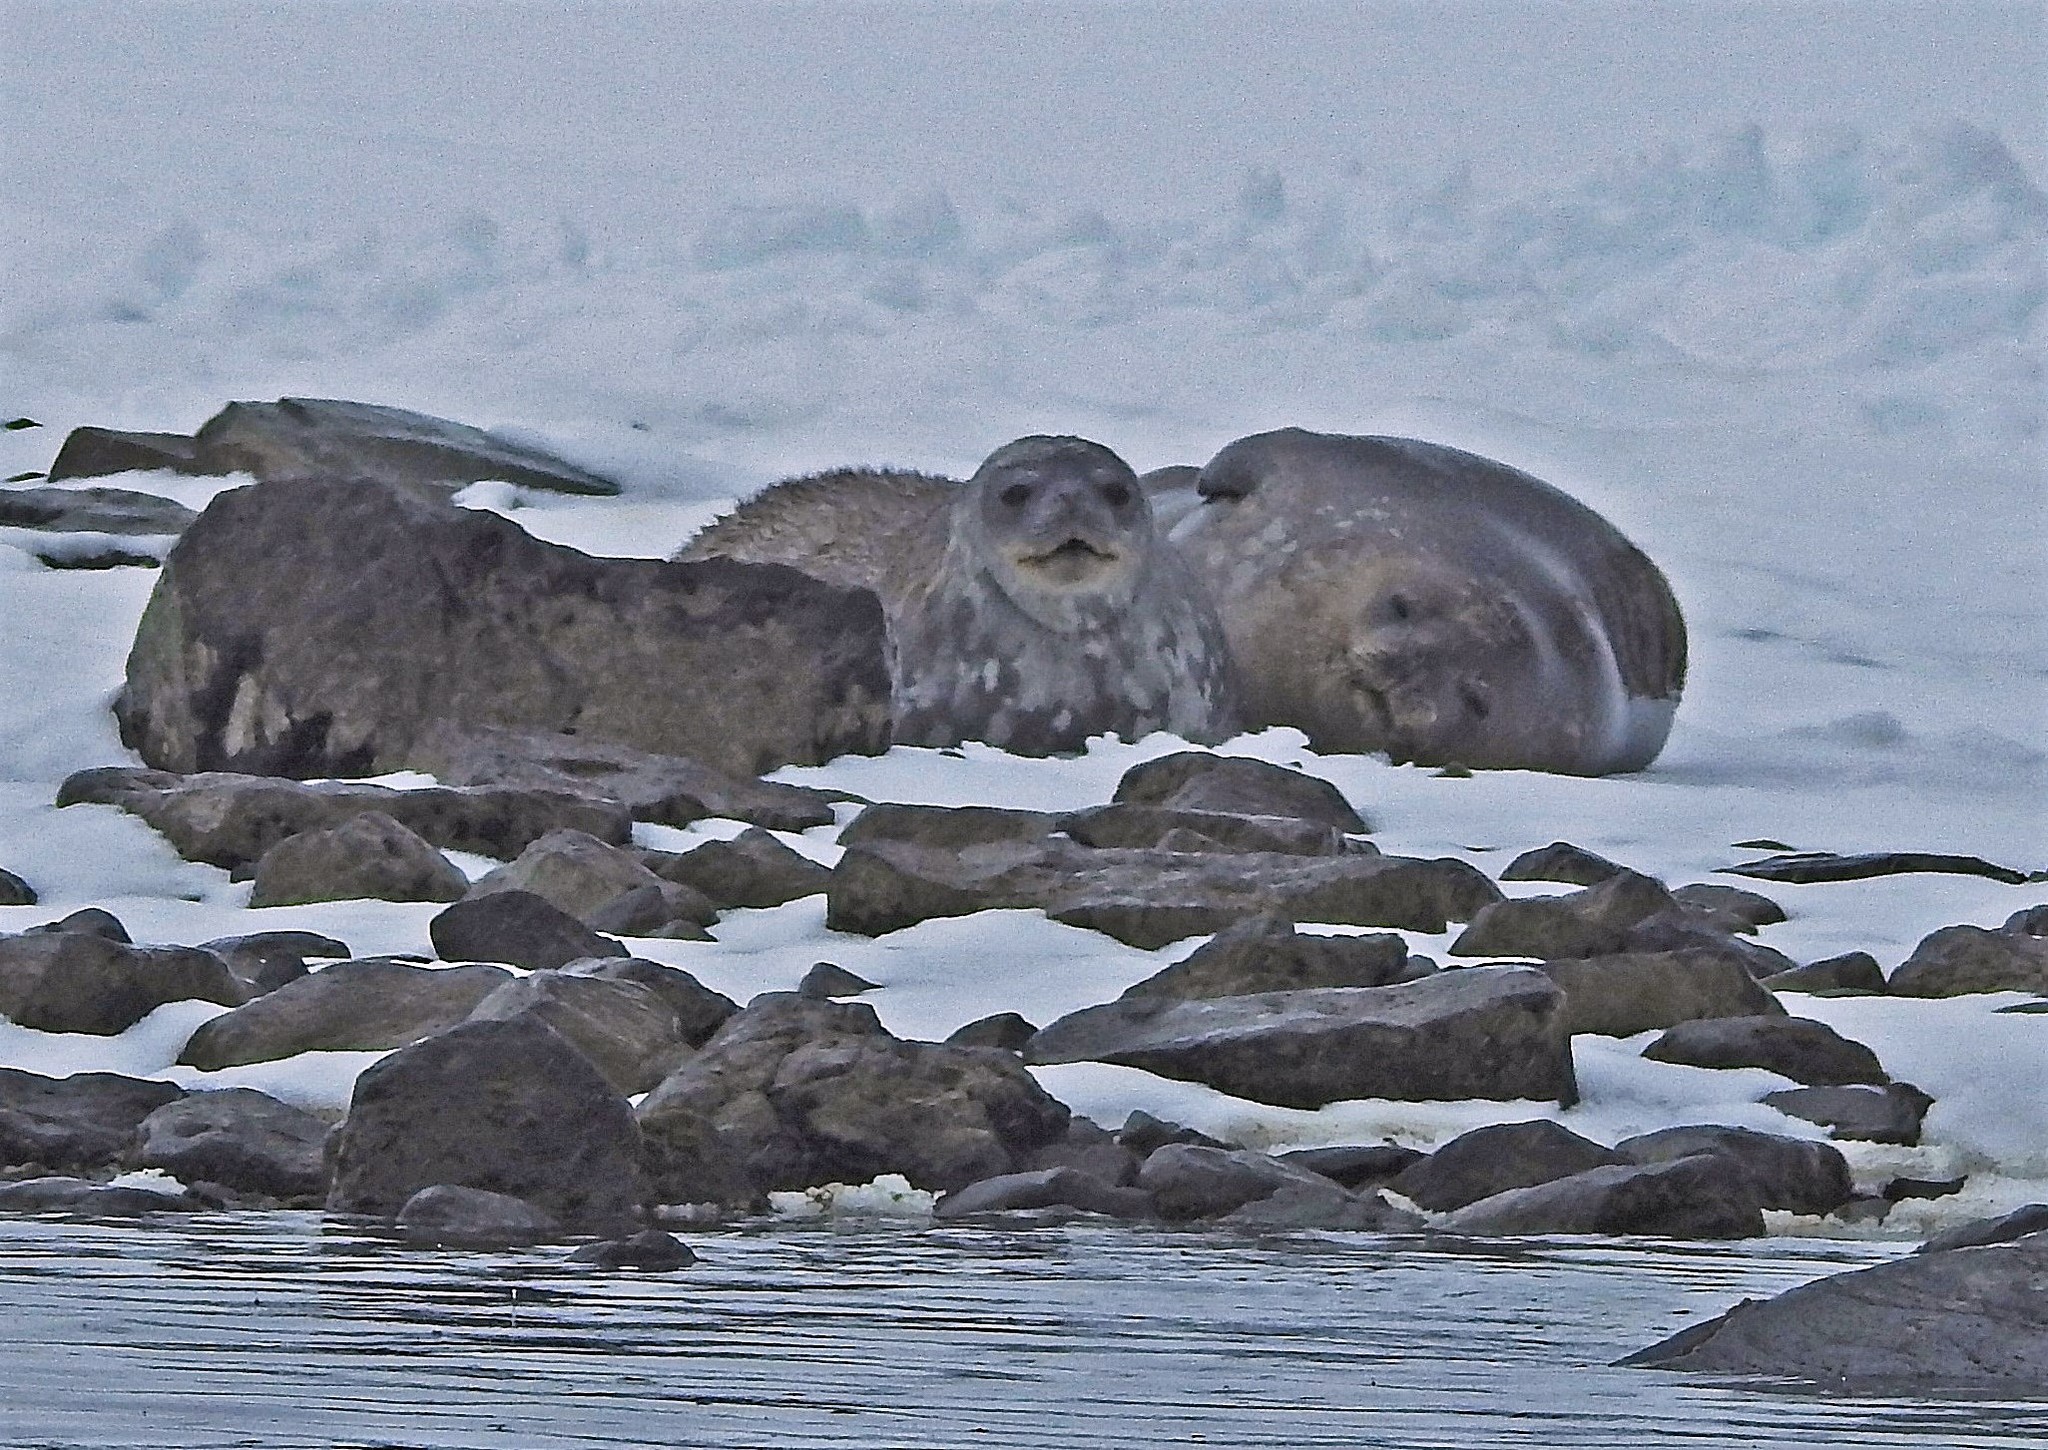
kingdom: Animalia
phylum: Chordata
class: Mammalia
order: Carnivora
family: Phocidae
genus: Leptonychotes
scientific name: Leptonychotes weddellii
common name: Weddell seal
